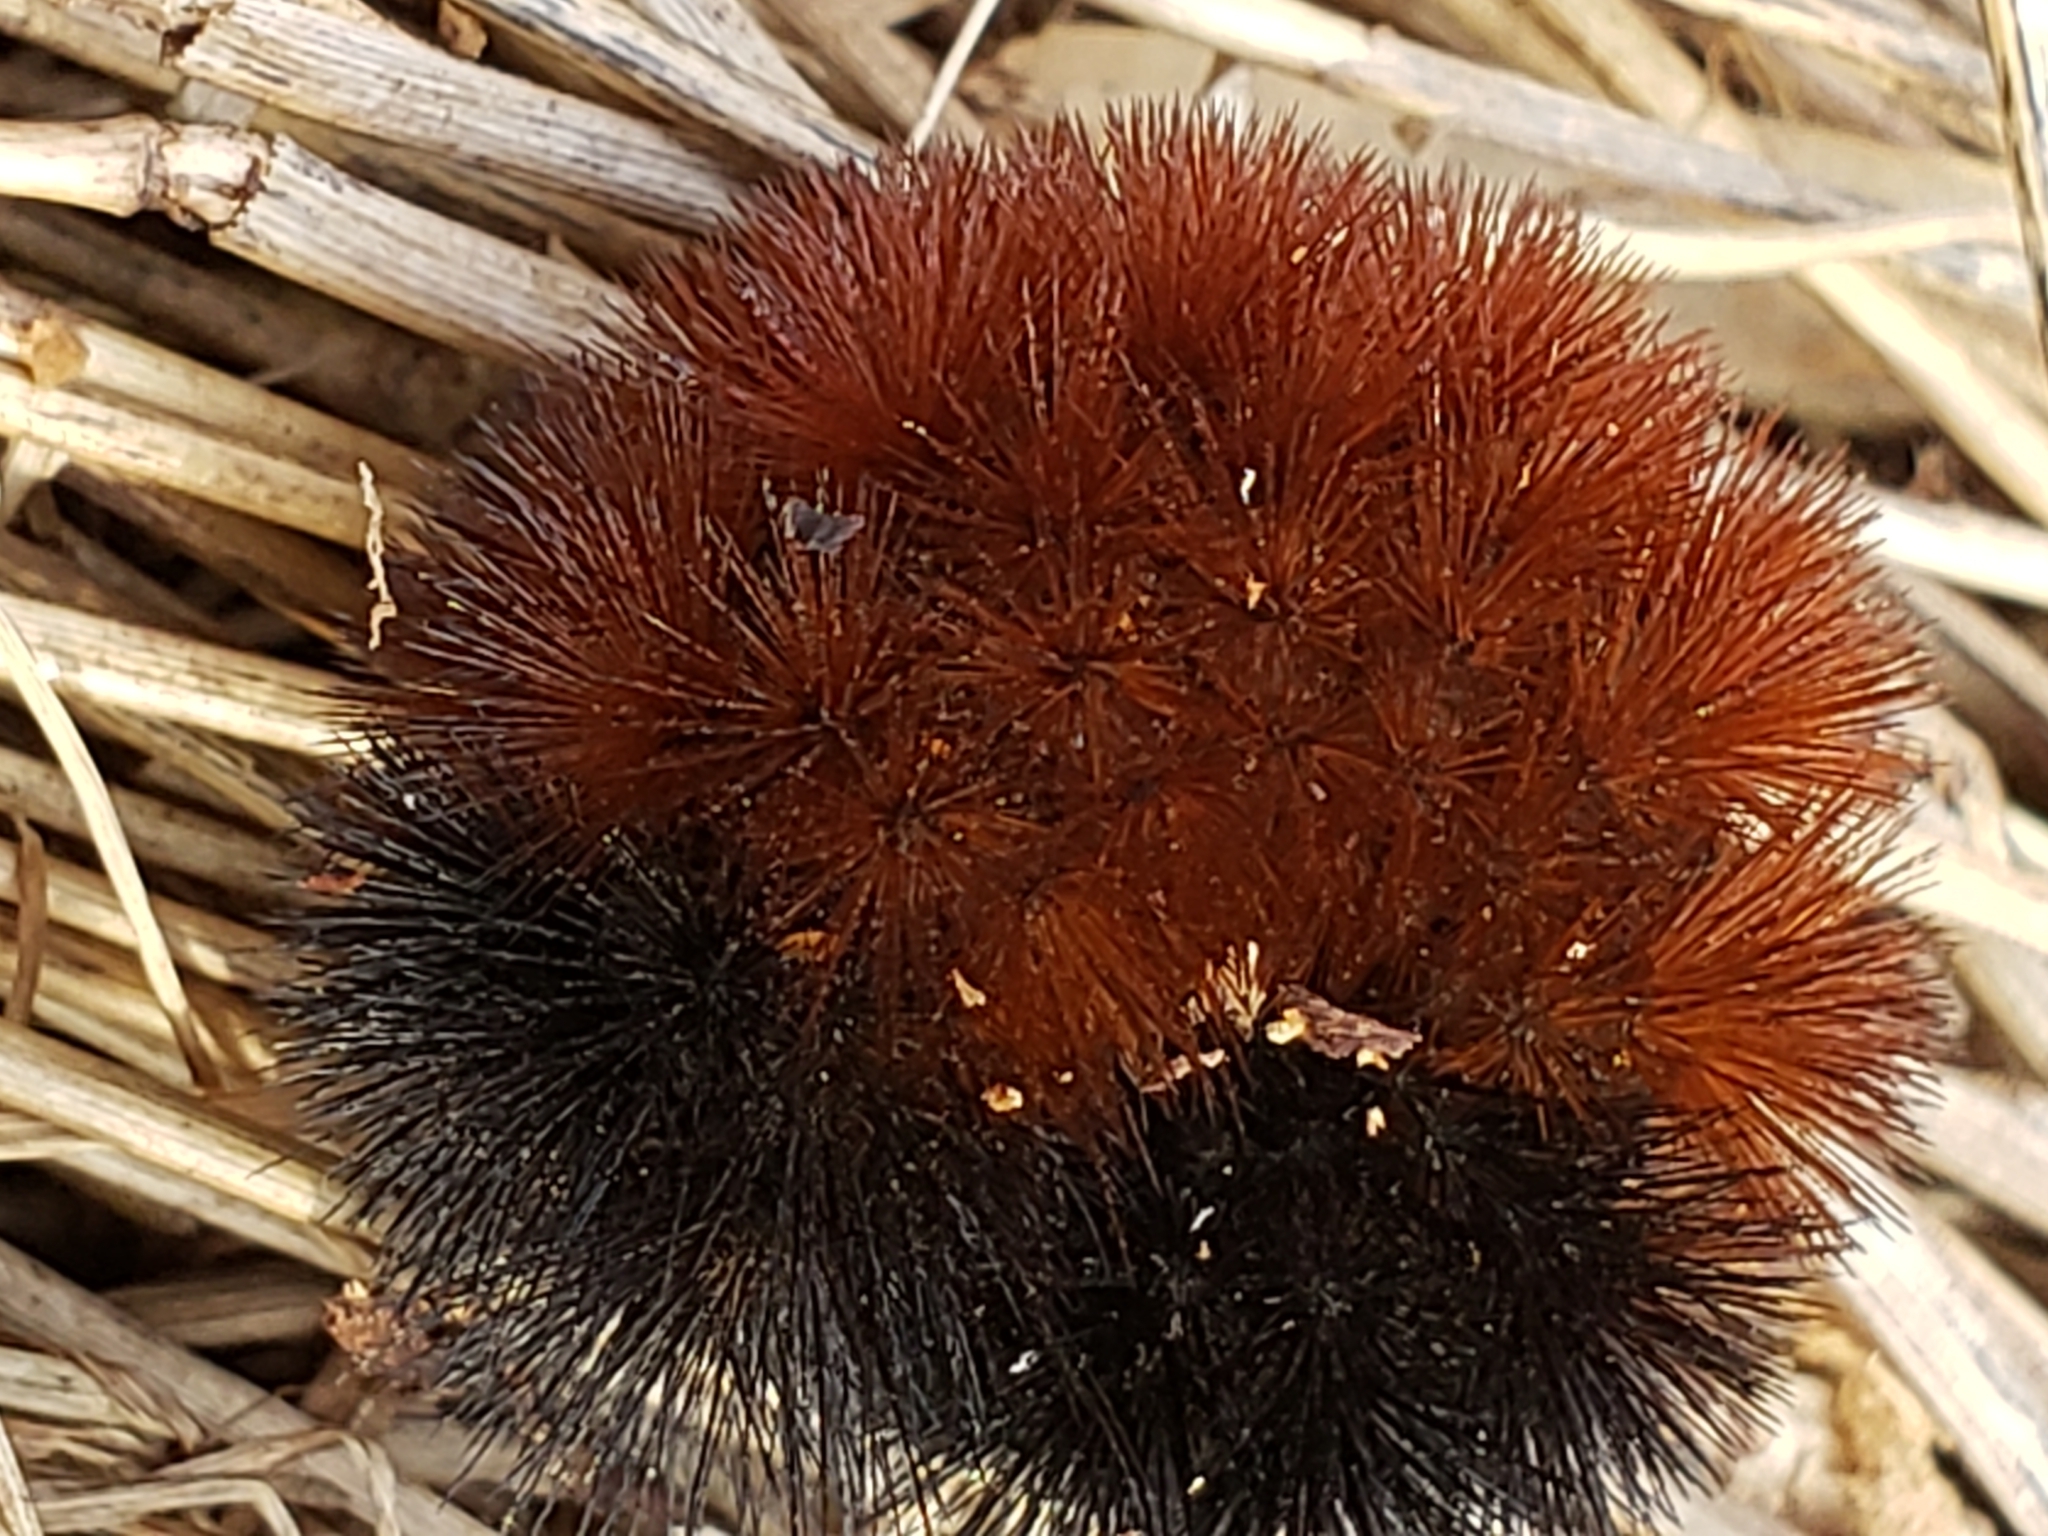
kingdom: Animalia
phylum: Arthropoda
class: Insecta
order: Lepidoptera
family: Erebidae
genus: Pyrrharctia
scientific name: Pyrrharctia isabella
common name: Isabella tiger moth
